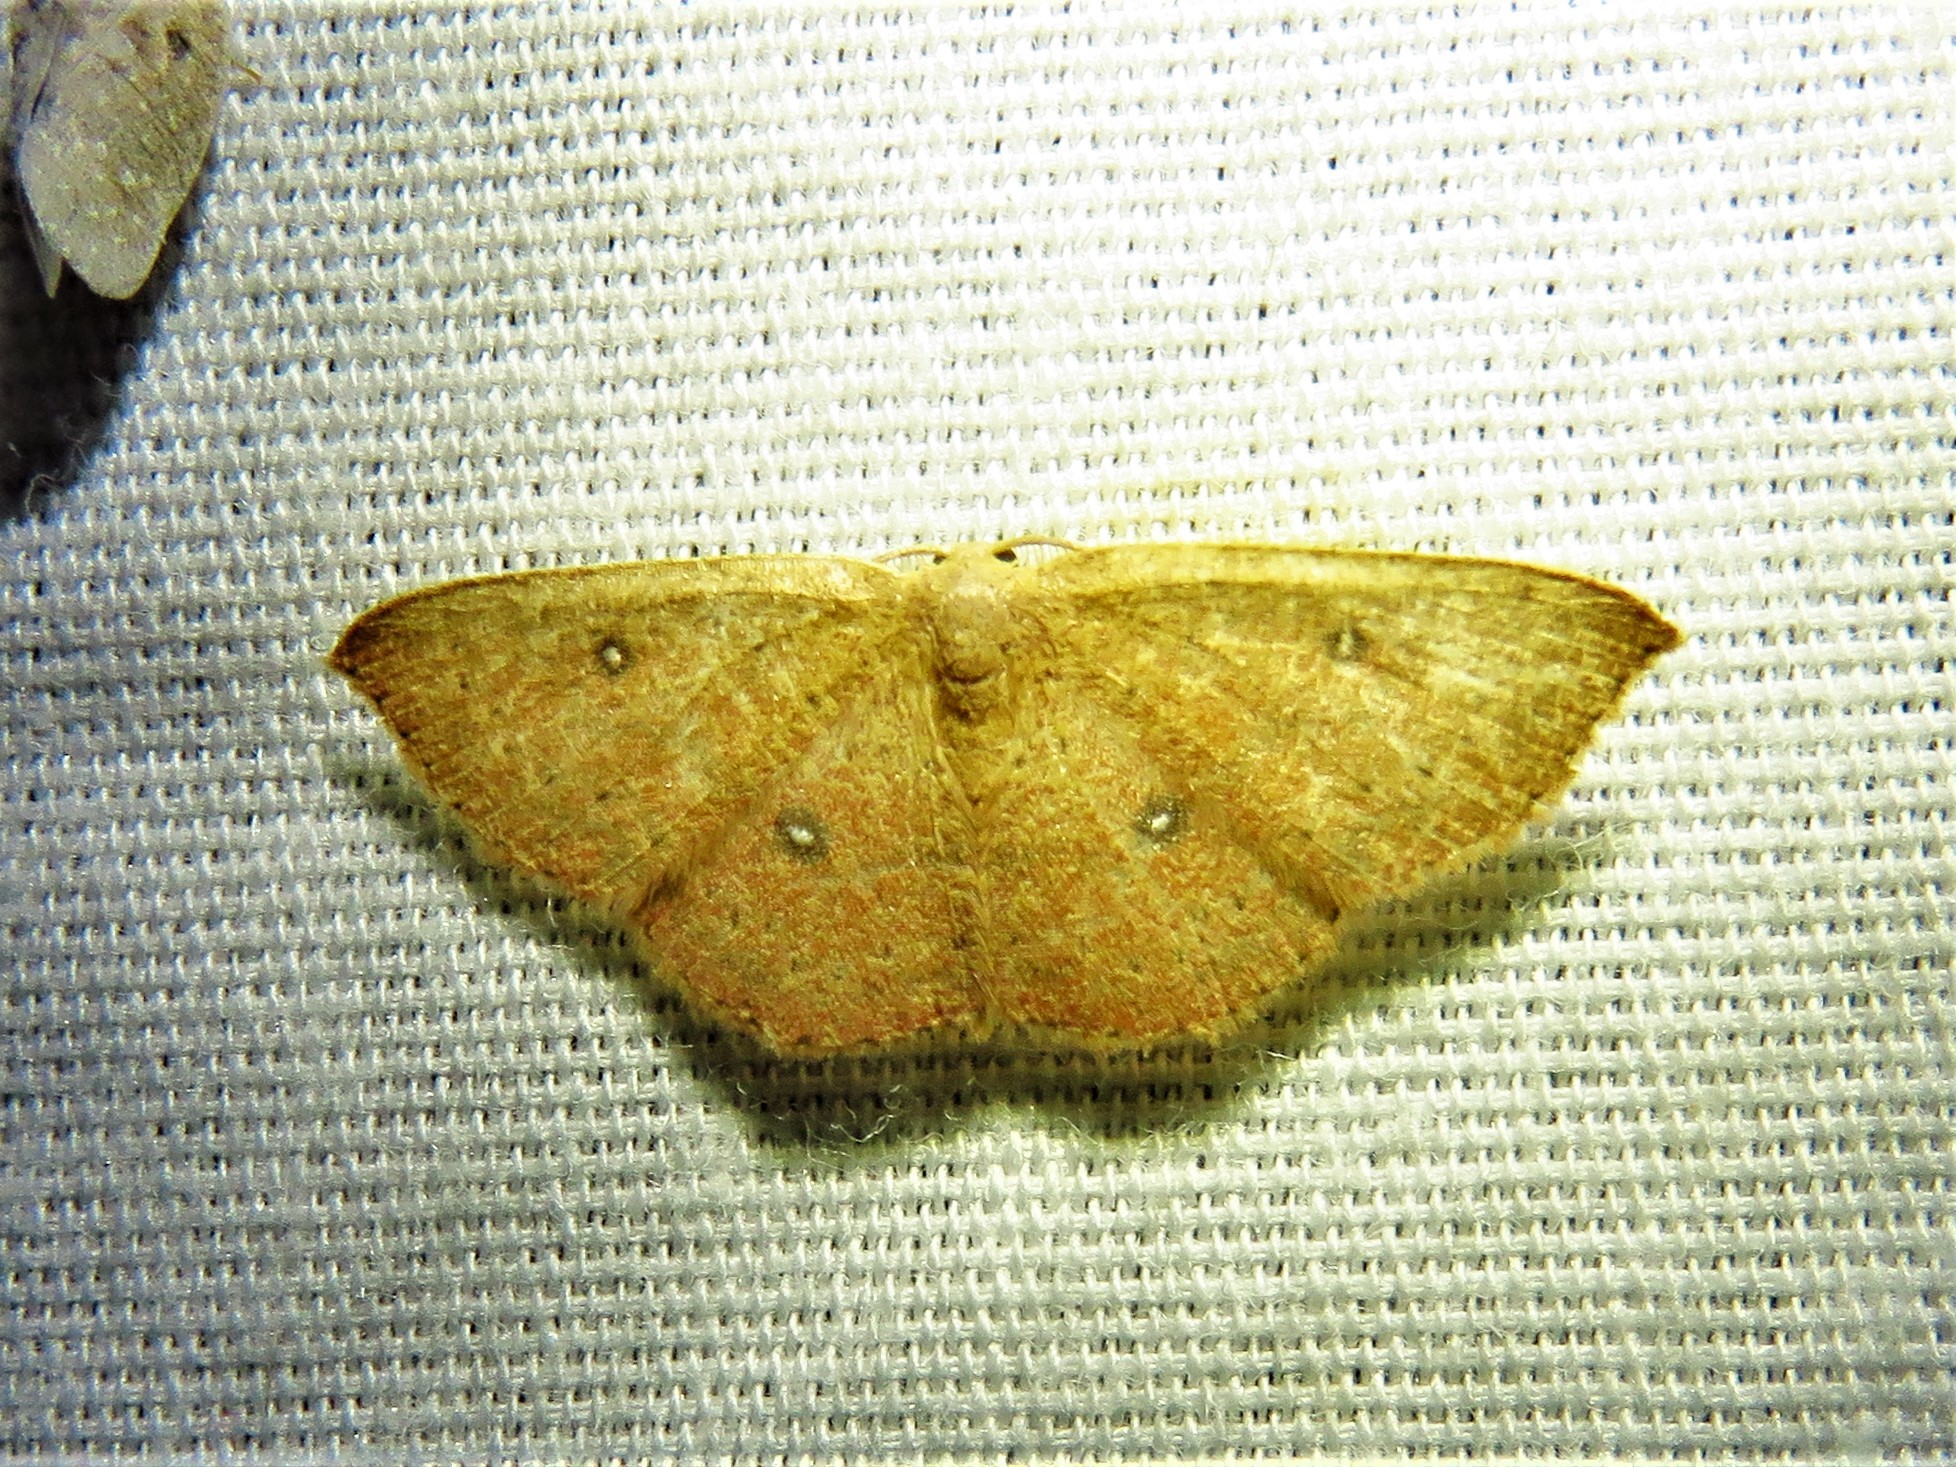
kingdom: Animalia
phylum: Arthropoda
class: Insecta
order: Lepidoptera
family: Geometridae
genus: Cyclophora
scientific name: Cyclophora packardi
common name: Packard's wave
